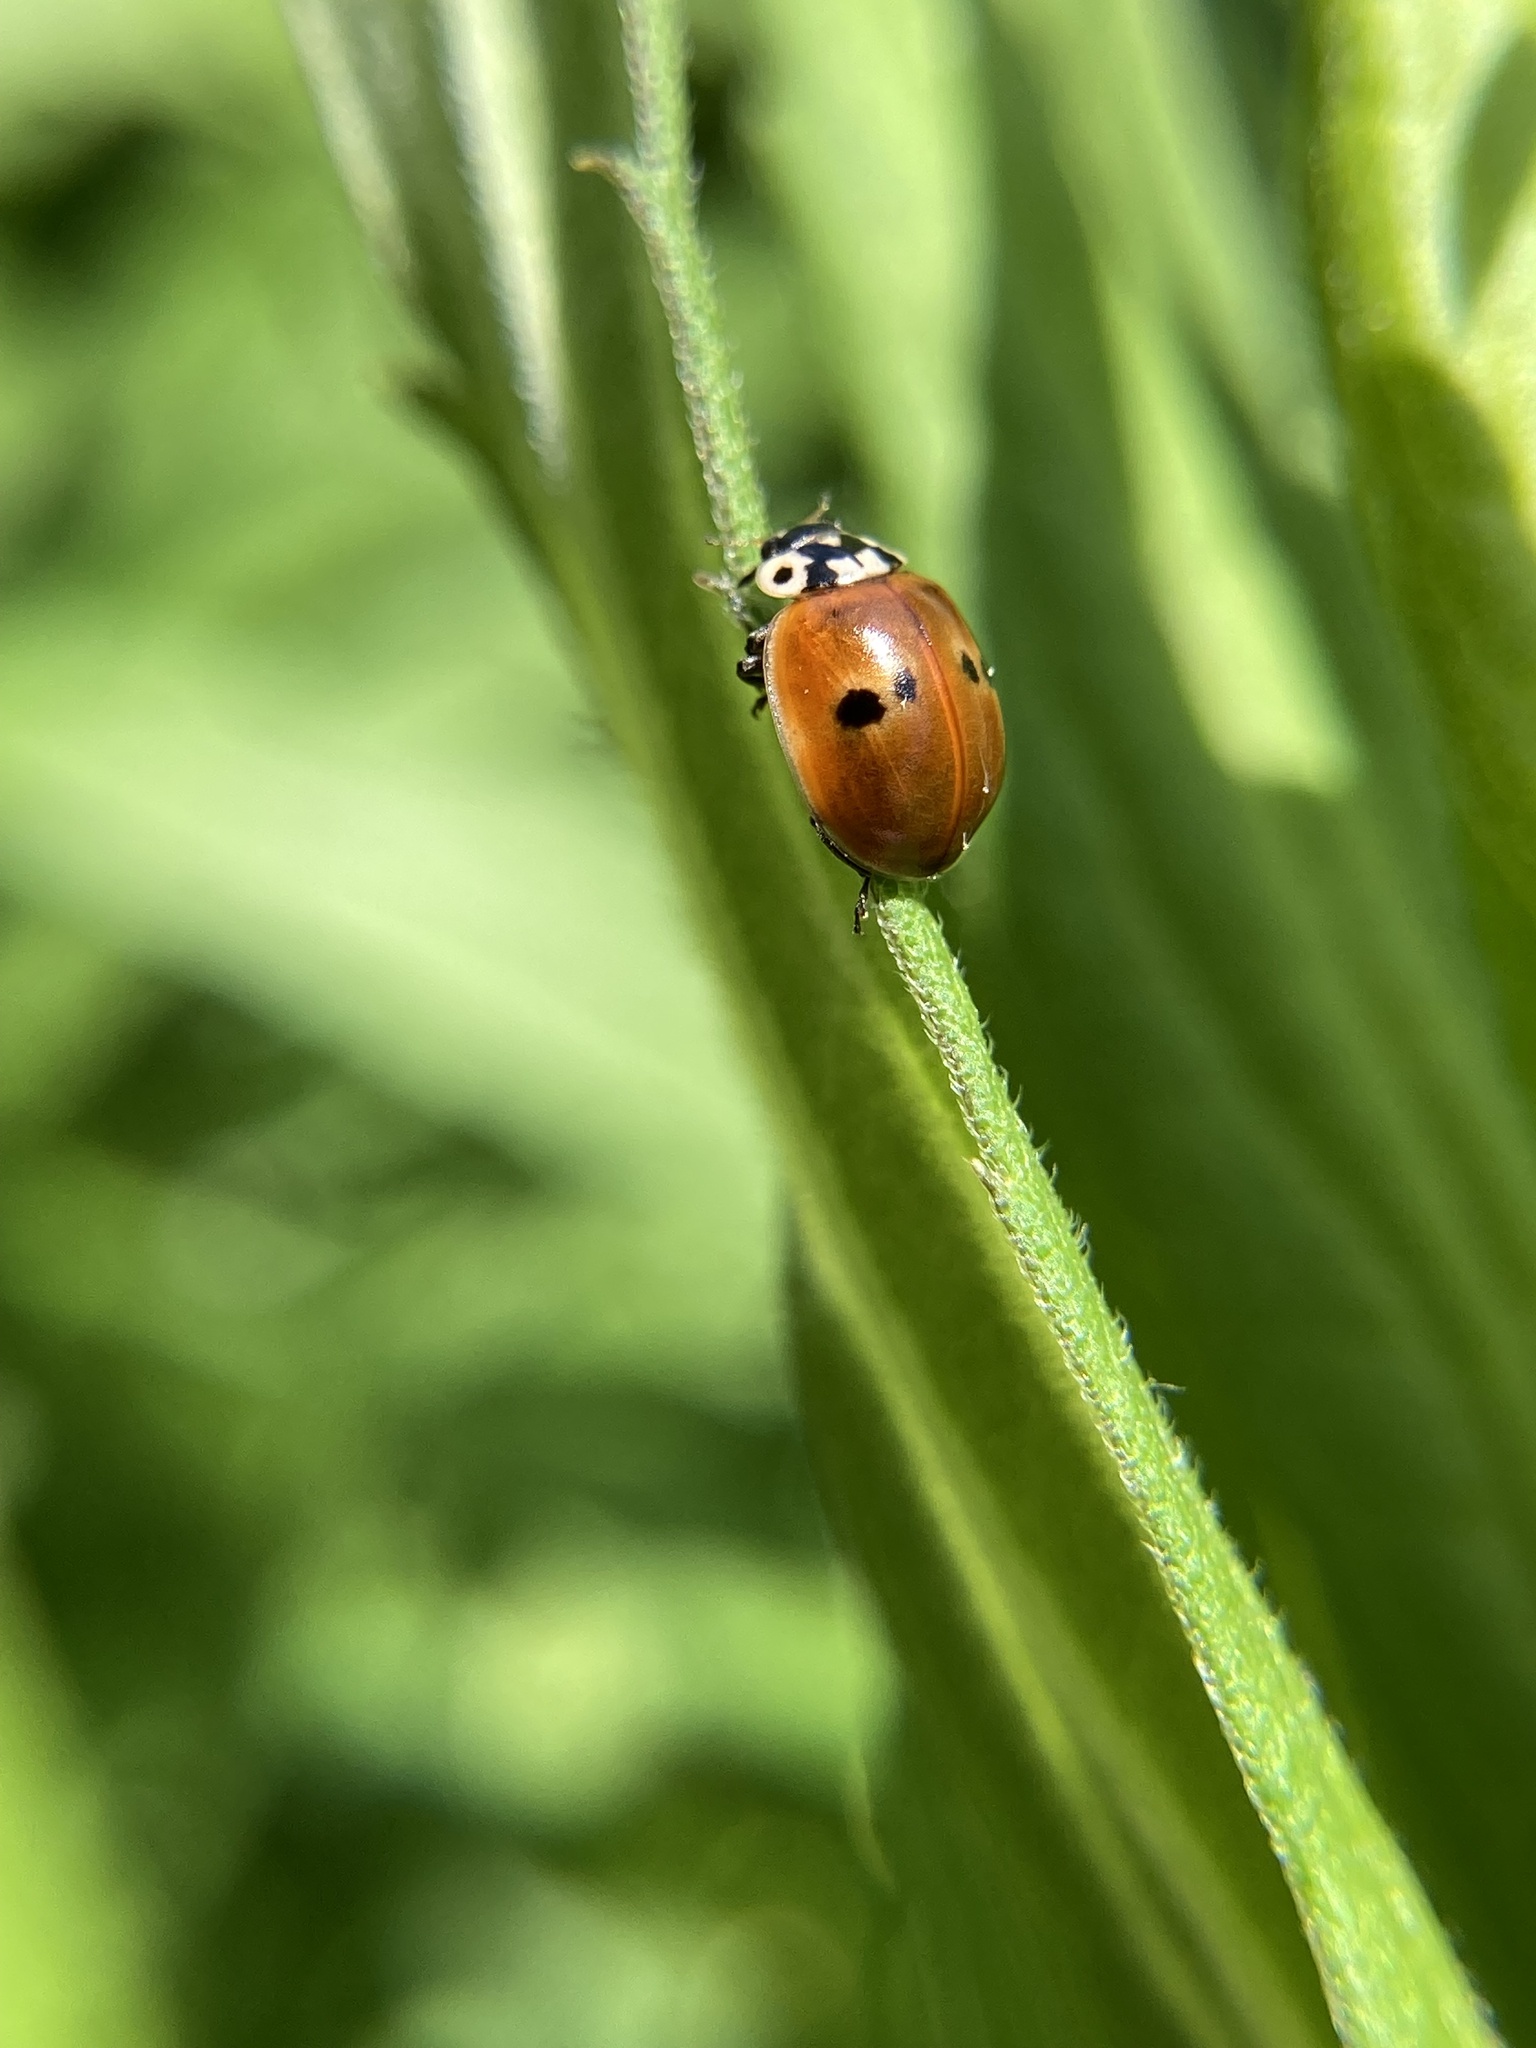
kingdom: Animalia
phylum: Arthropoda
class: Insecta
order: Coleoptera
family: Coccinellidae
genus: Adalia
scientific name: Adalia bipunctata
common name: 2-spot ladybird
